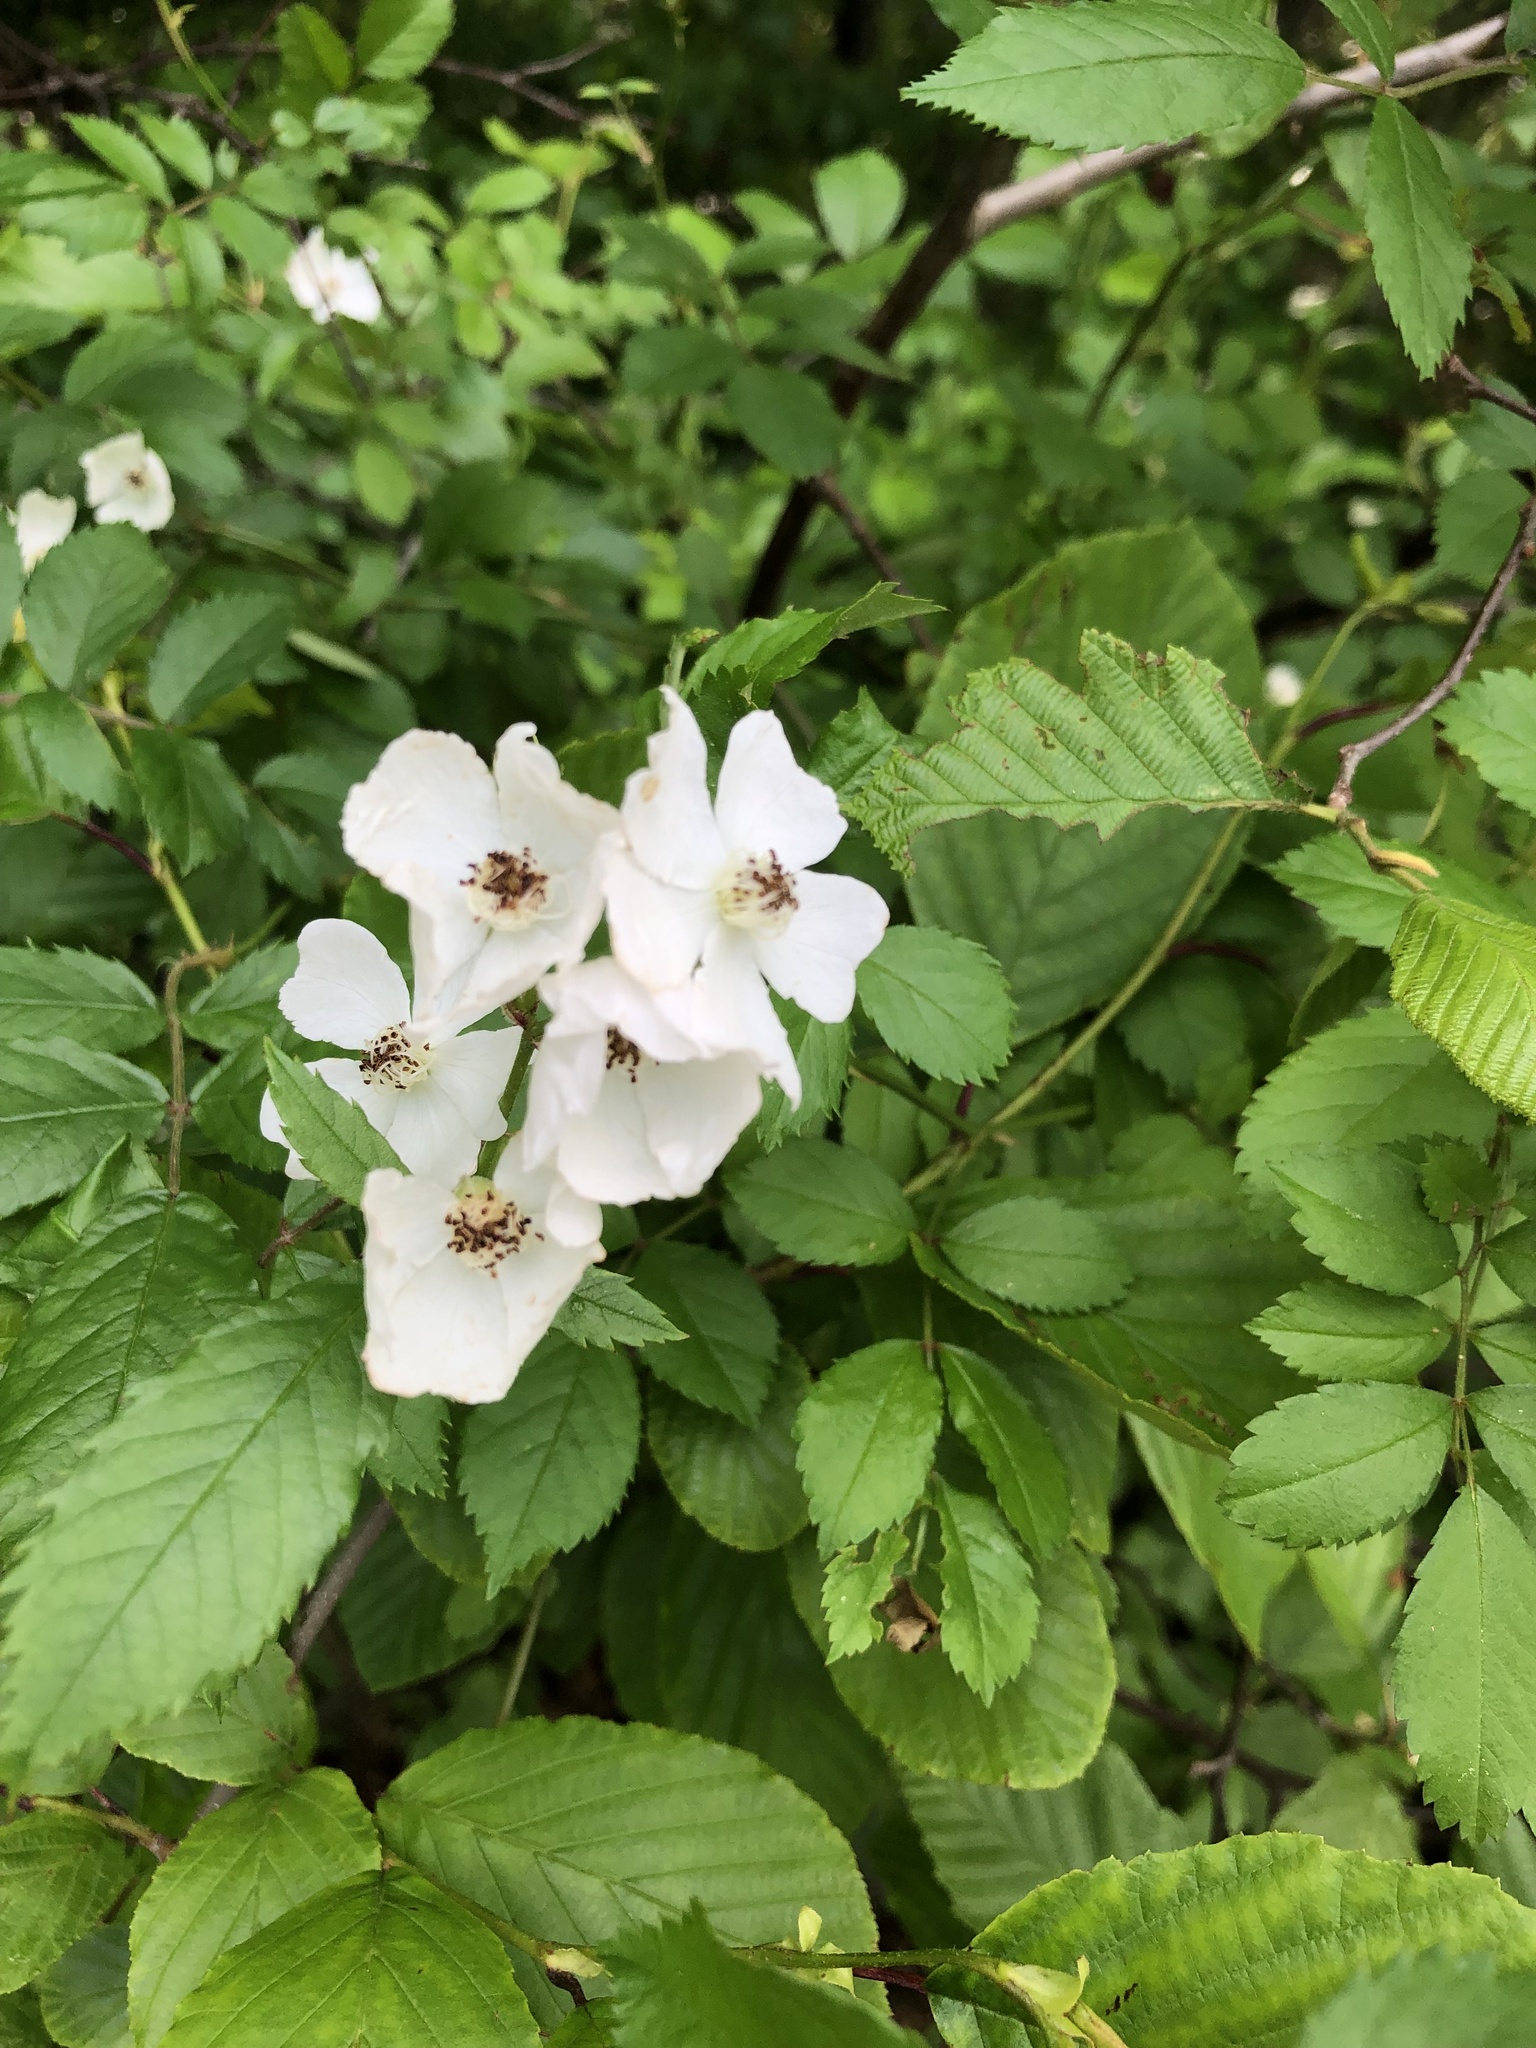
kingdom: Plantae
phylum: Tracheophyta
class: Magnoliopsida
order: Rosales
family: Rosaceae
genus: Rosa
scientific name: Rosa multiflora
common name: Multiflora rose
